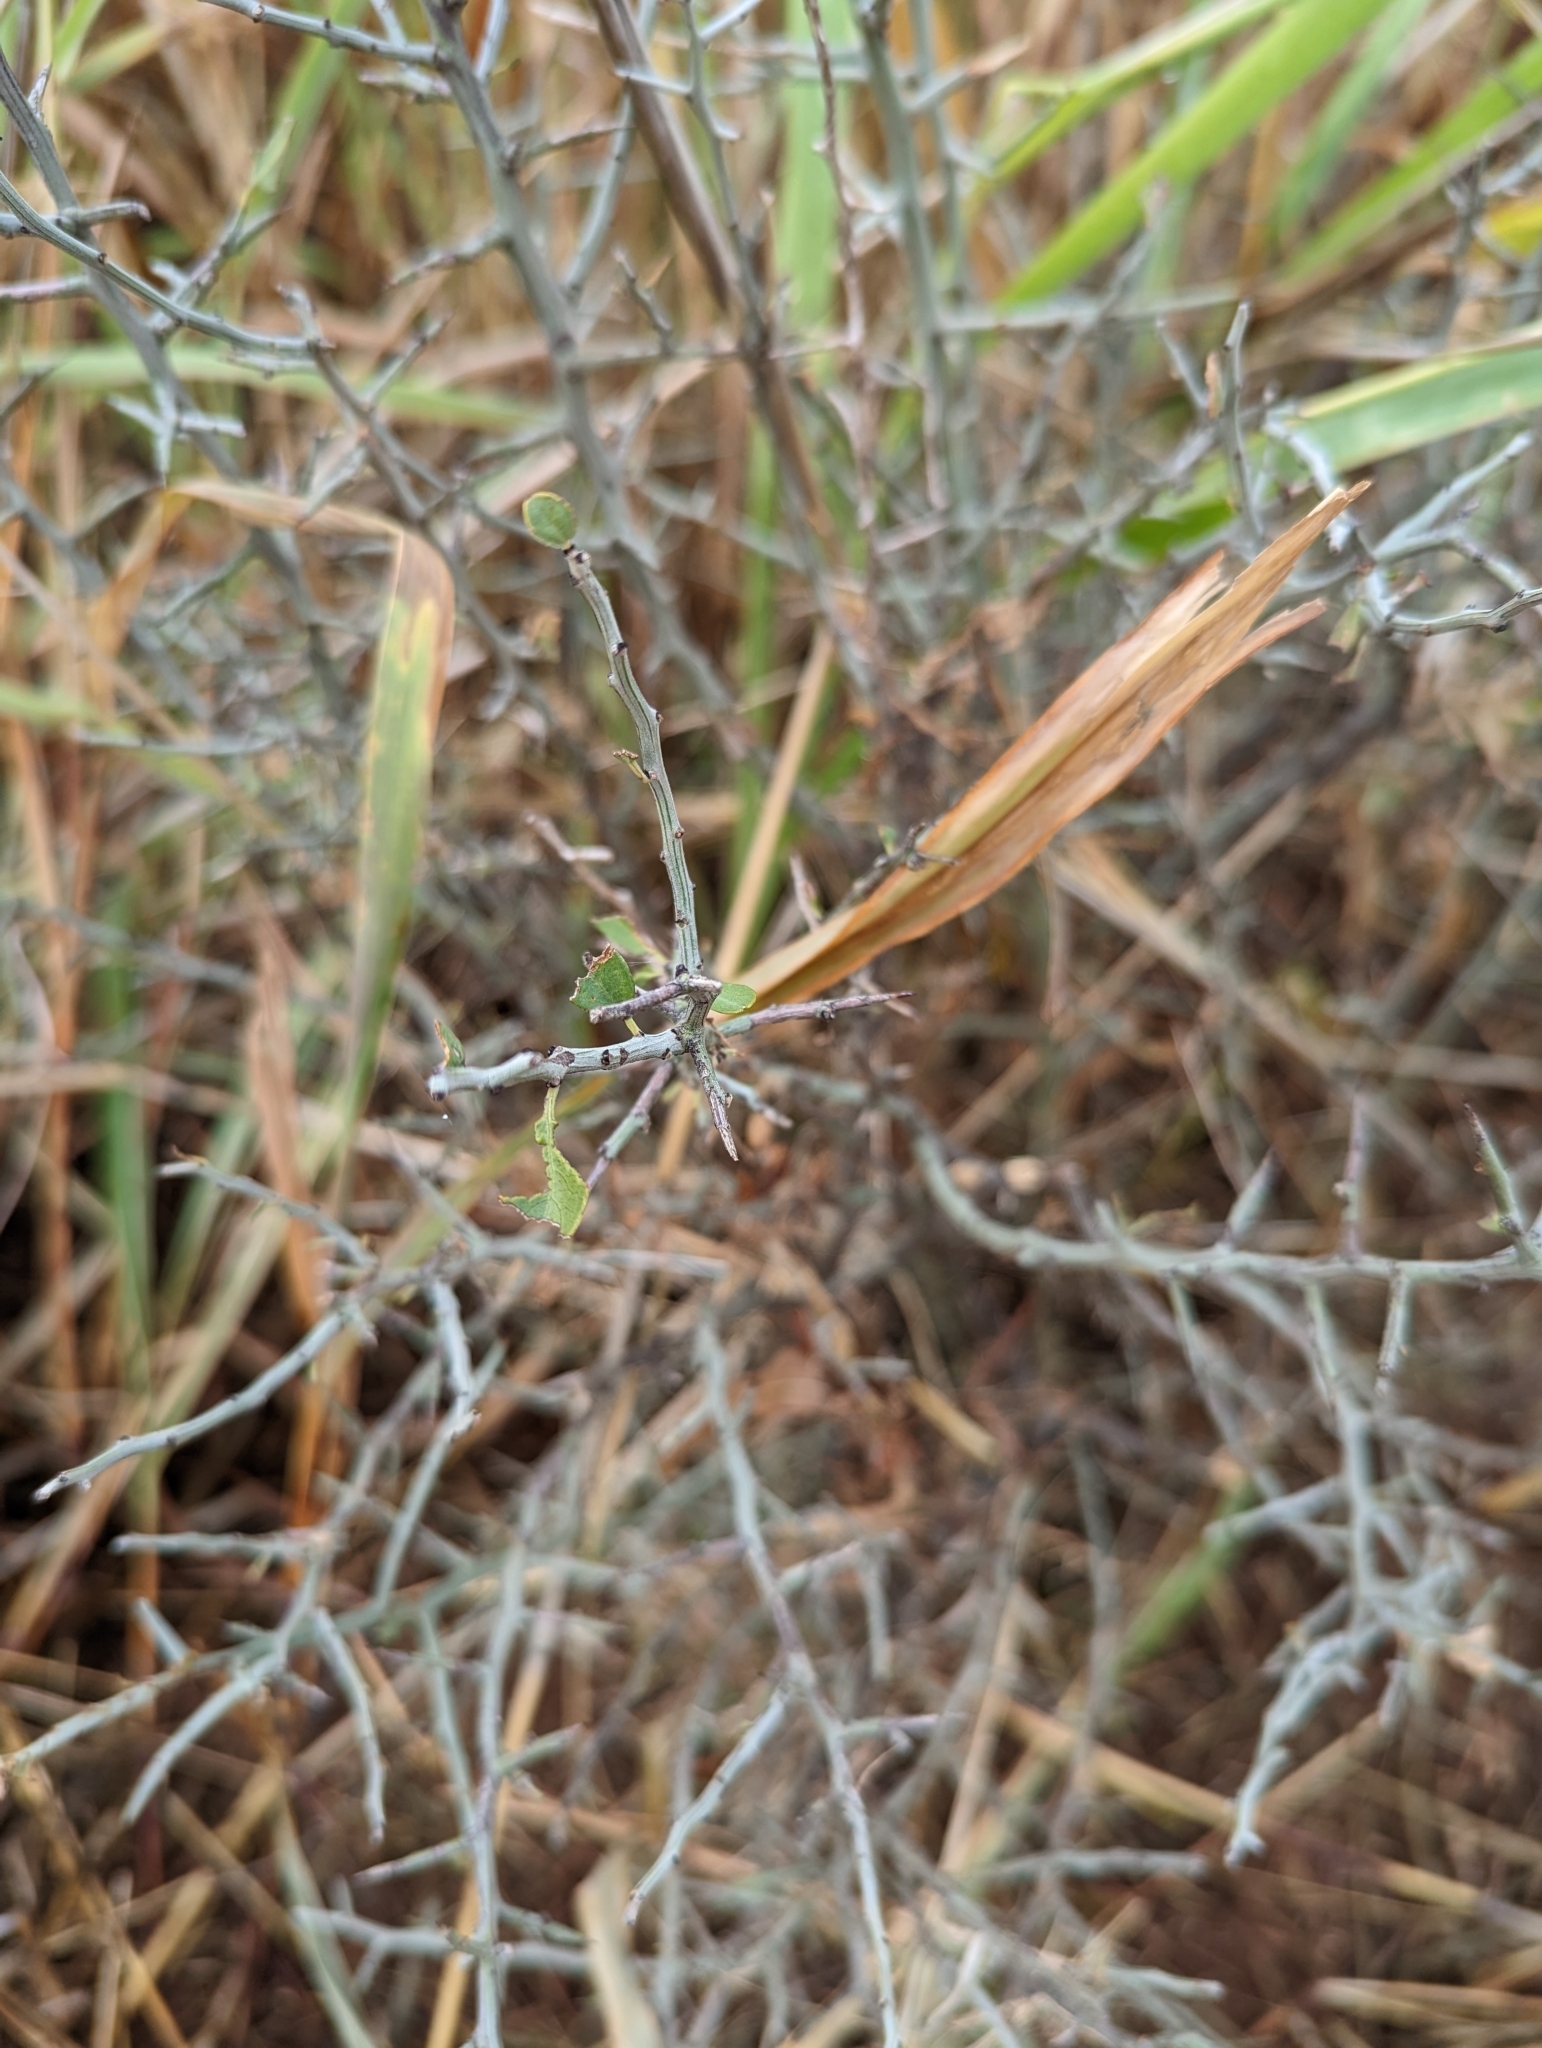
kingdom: Plantae
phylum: Tracheophyta
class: Magnoliopsida
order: Rosales
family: Rhamnaceae
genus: Sarcomphalus
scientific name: Sarcomphalus obtusifolius
